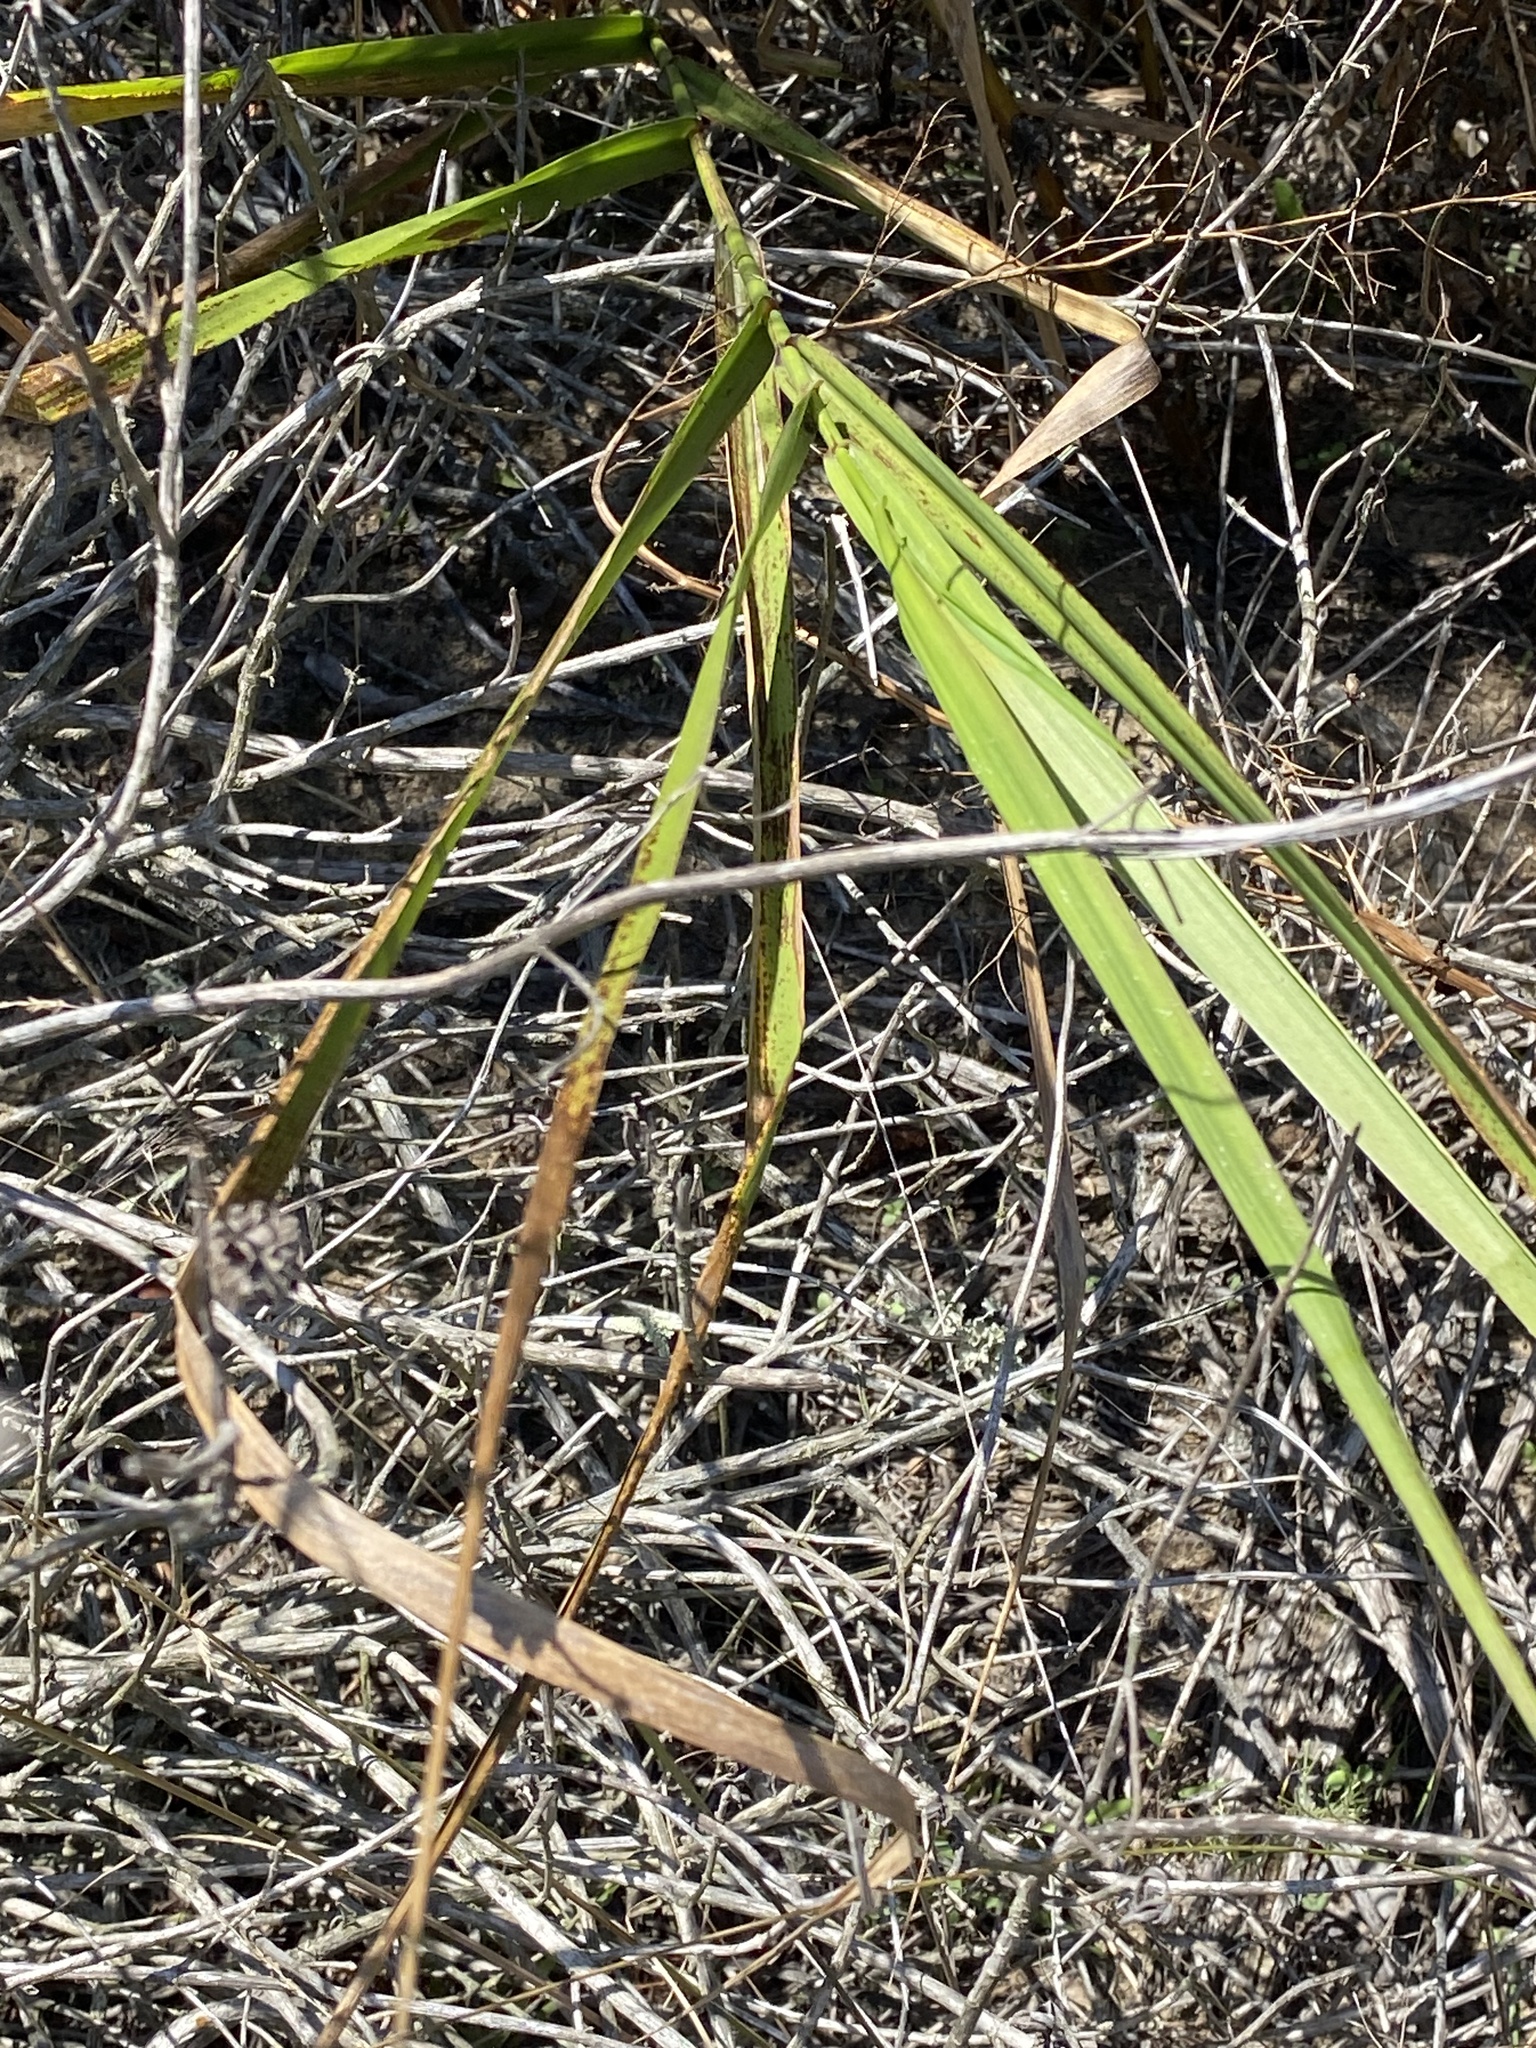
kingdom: Plantae
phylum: Tracheophyta
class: Liliopsida
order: Poales
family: Poaceae
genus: Leymus
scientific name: Leymus condensatus
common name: Giant wild rye
